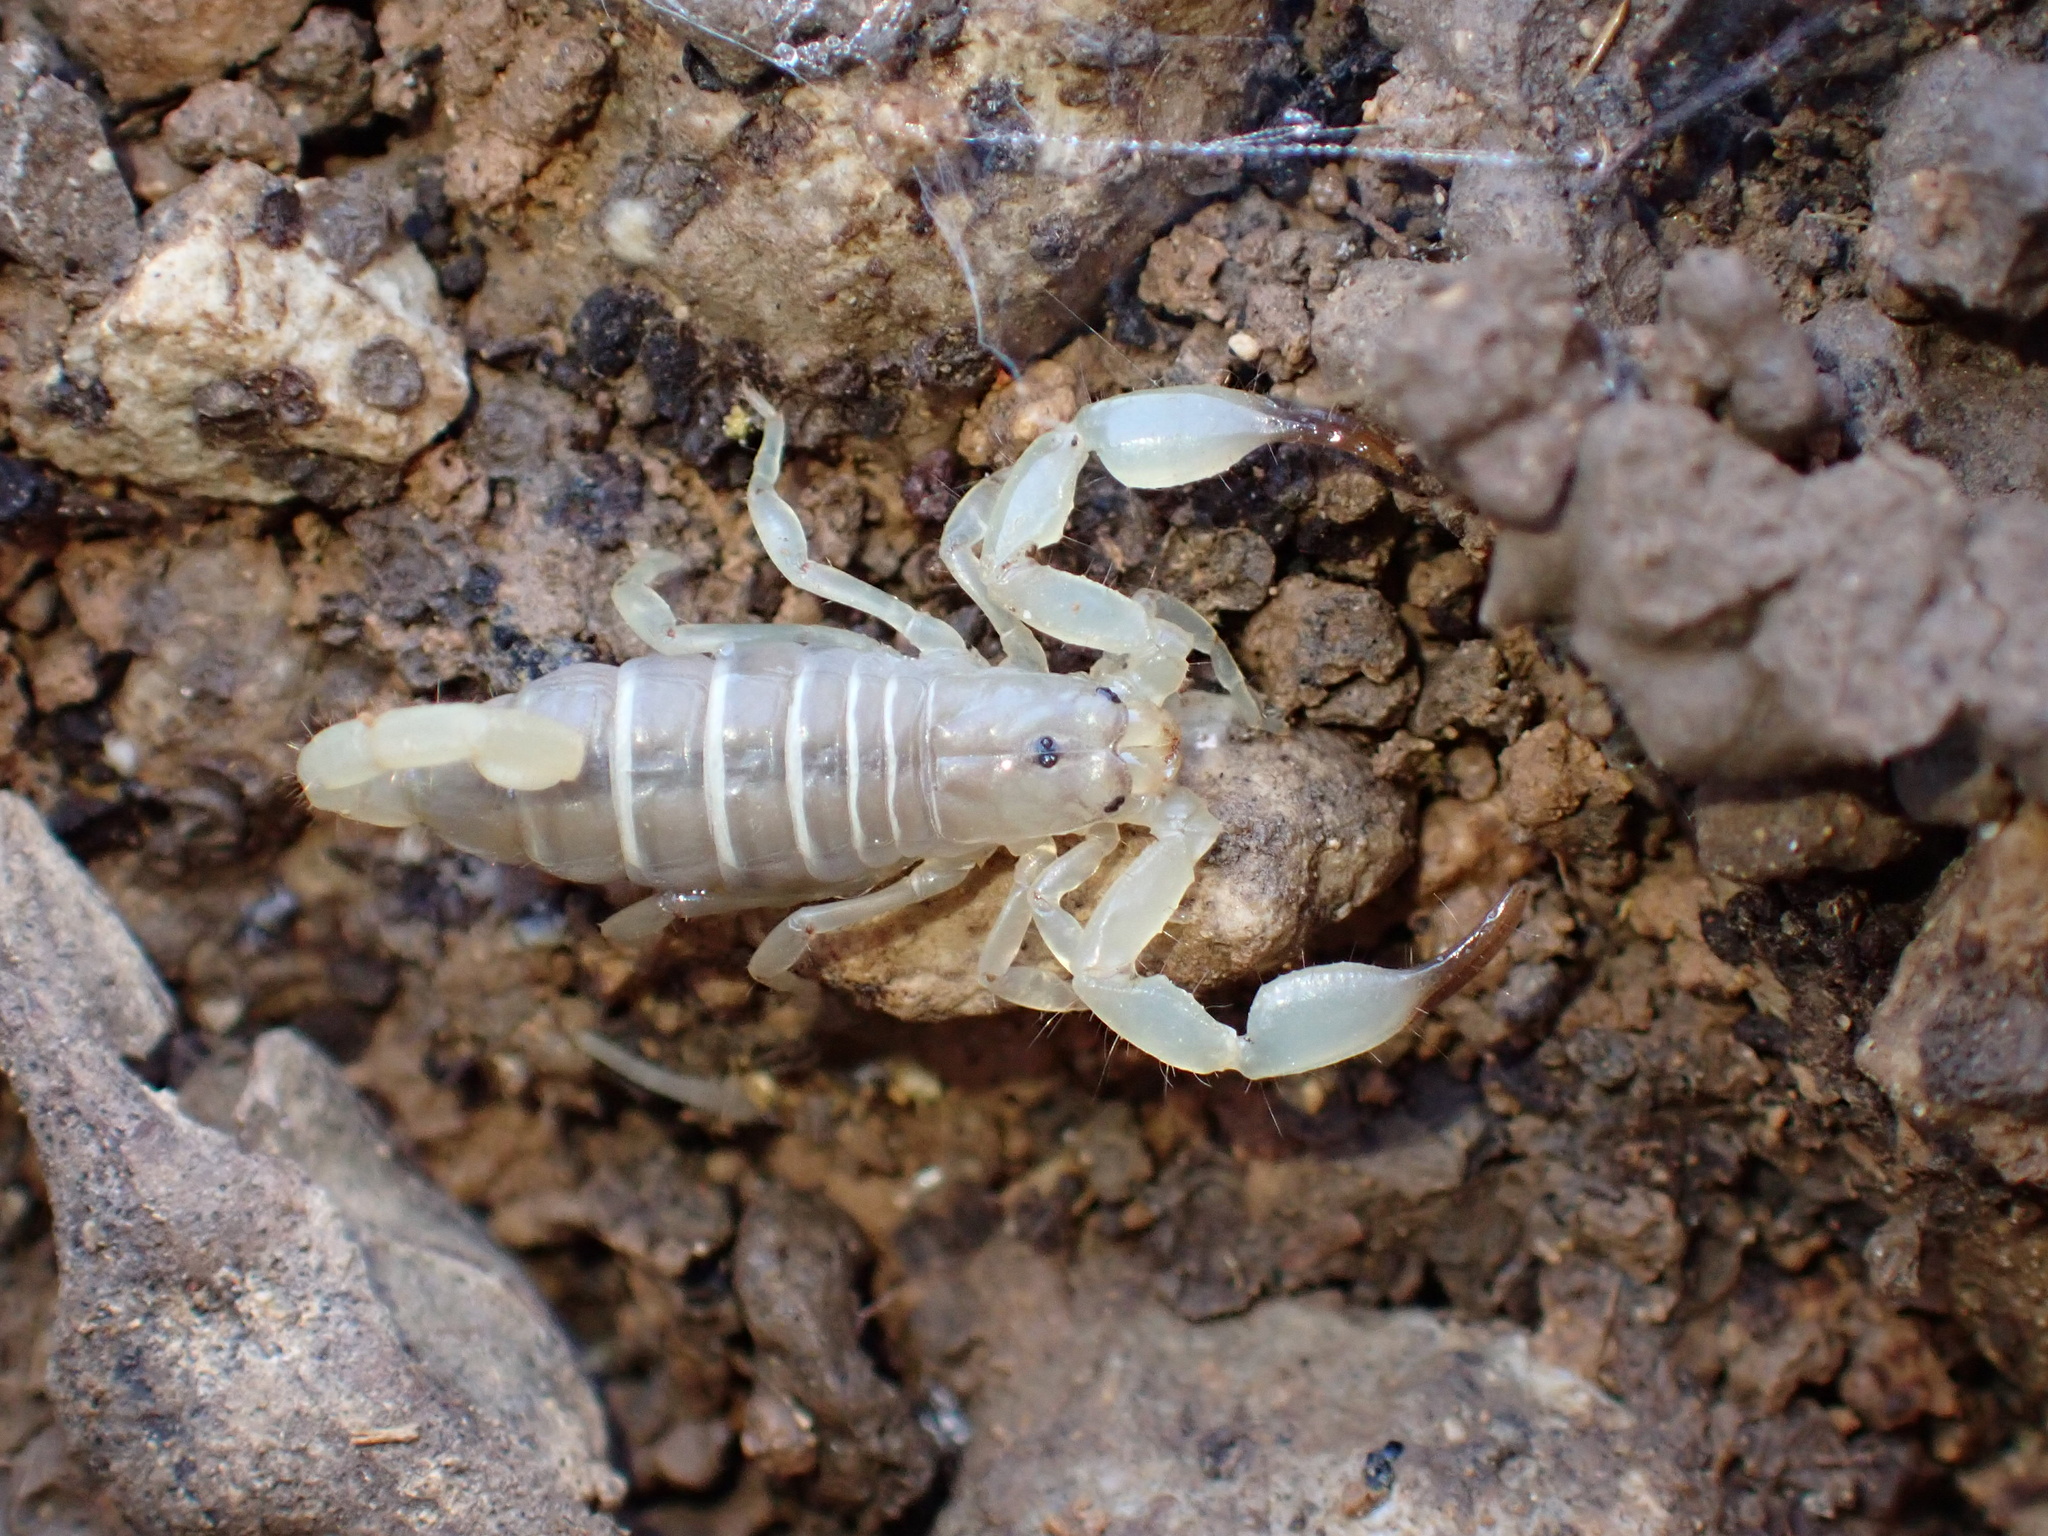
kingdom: Animalia
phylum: Arthropoda
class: Arachnida
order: Scorpiones
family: Hemiscorpiidae
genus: Hemiscorpius
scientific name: Hemiscorpius lepturus
